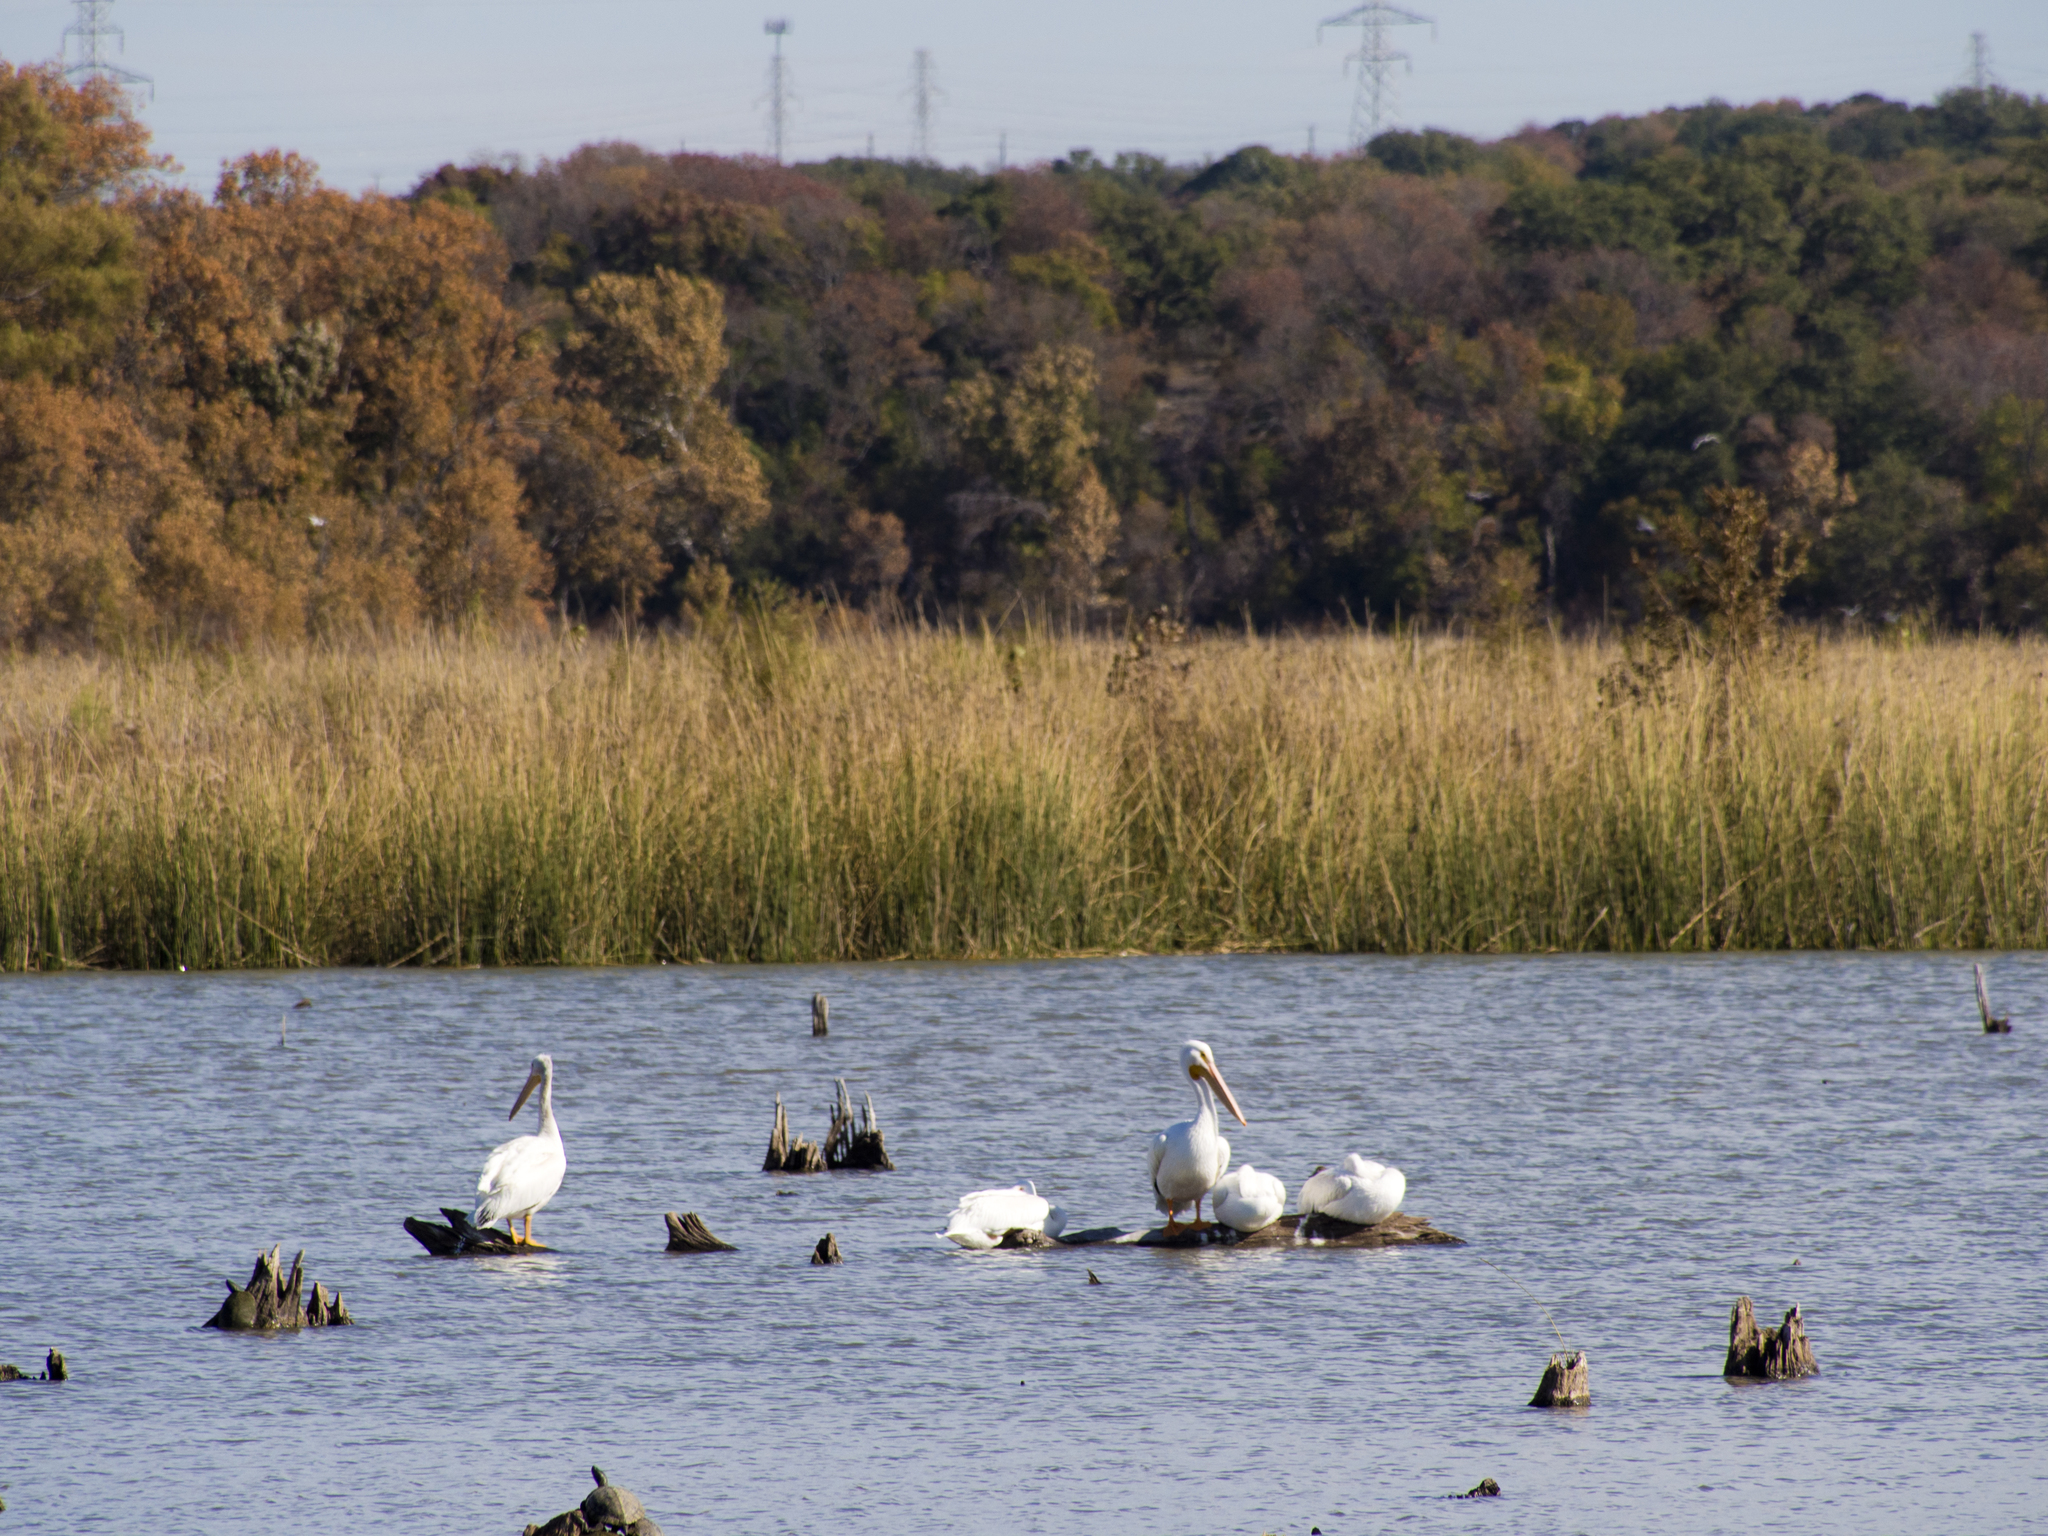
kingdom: Animalia
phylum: Chordata
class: Aves
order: Pelecaniformes
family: Pelecanidae
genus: Pelecanus
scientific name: Pelecanus erythrorhynchos
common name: American white pelican
